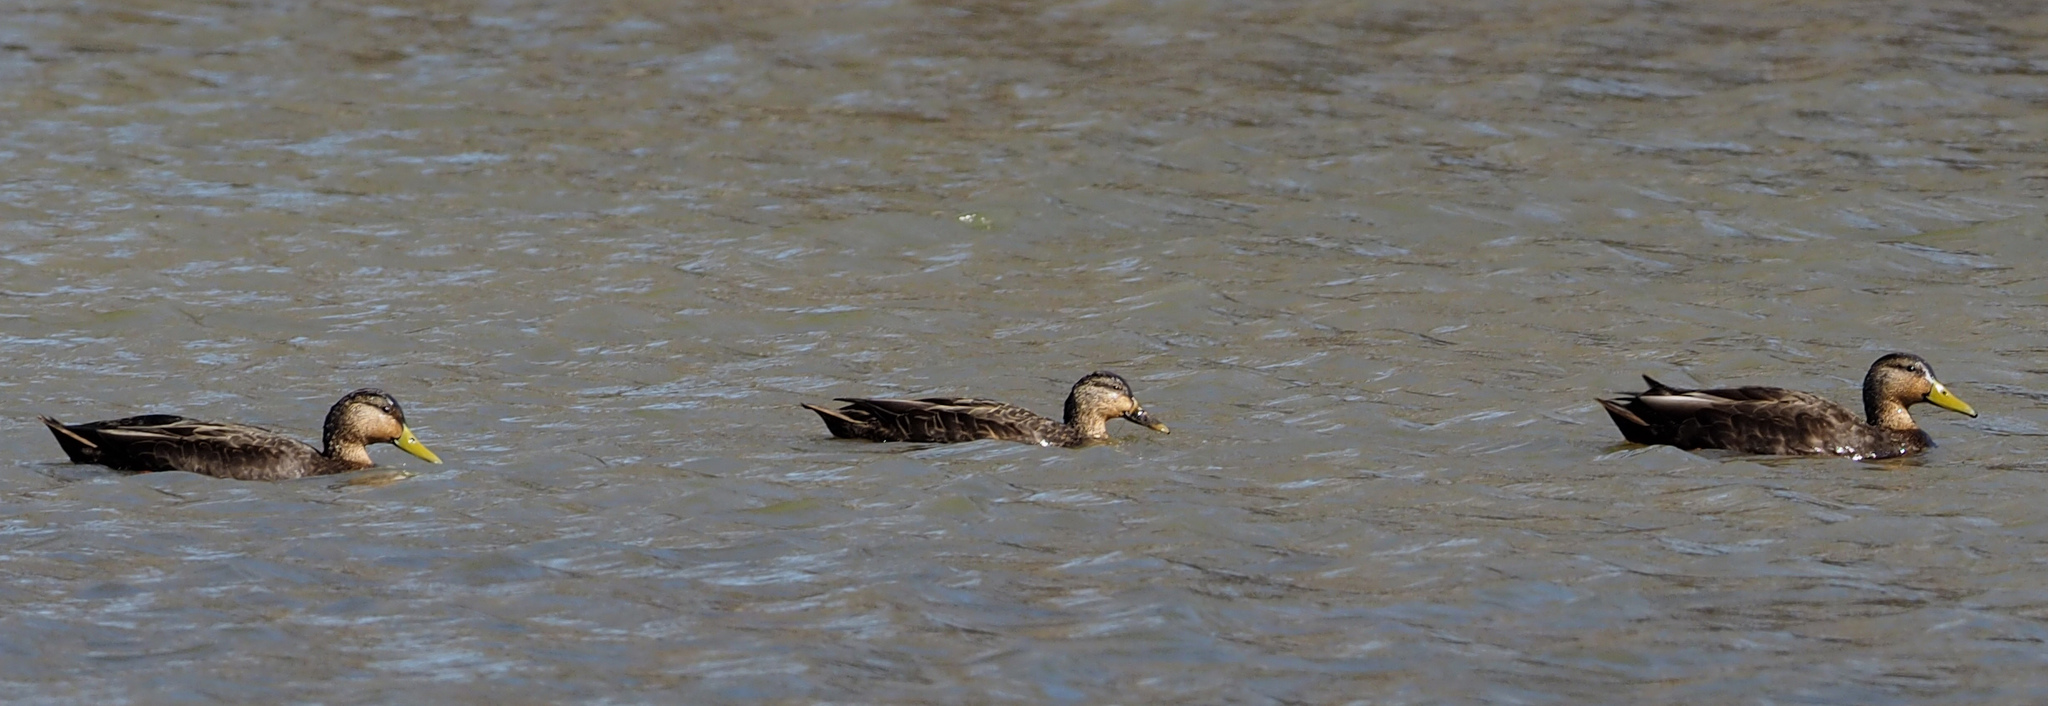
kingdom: Animalia
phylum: Chordata
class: Aves
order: Anseriformes
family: Anatidae
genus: Anas
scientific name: Anas rubripes
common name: American black duck
